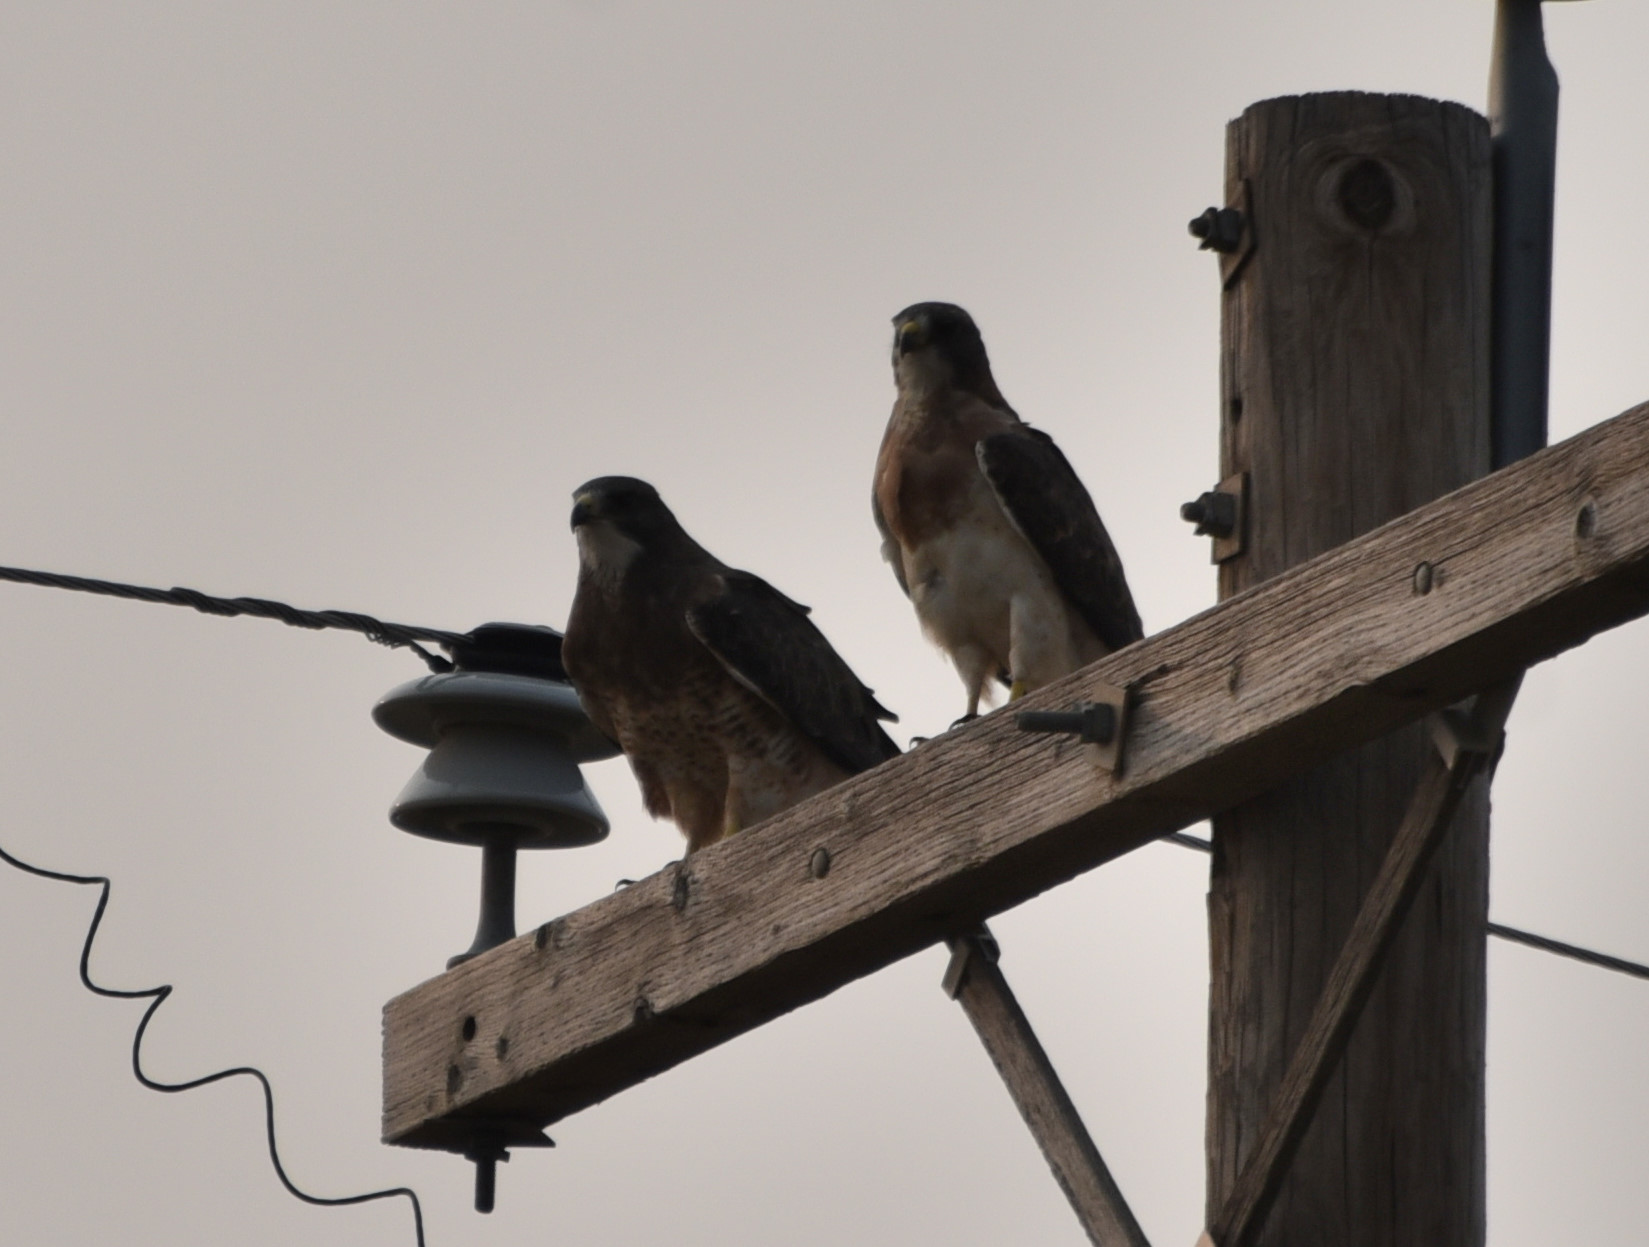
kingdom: Animalia
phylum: Chordata
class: Aves
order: Accipitriformes
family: Accipitridae
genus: Buteo
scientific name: Buteo swainsoni
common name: Swainson's hawk
